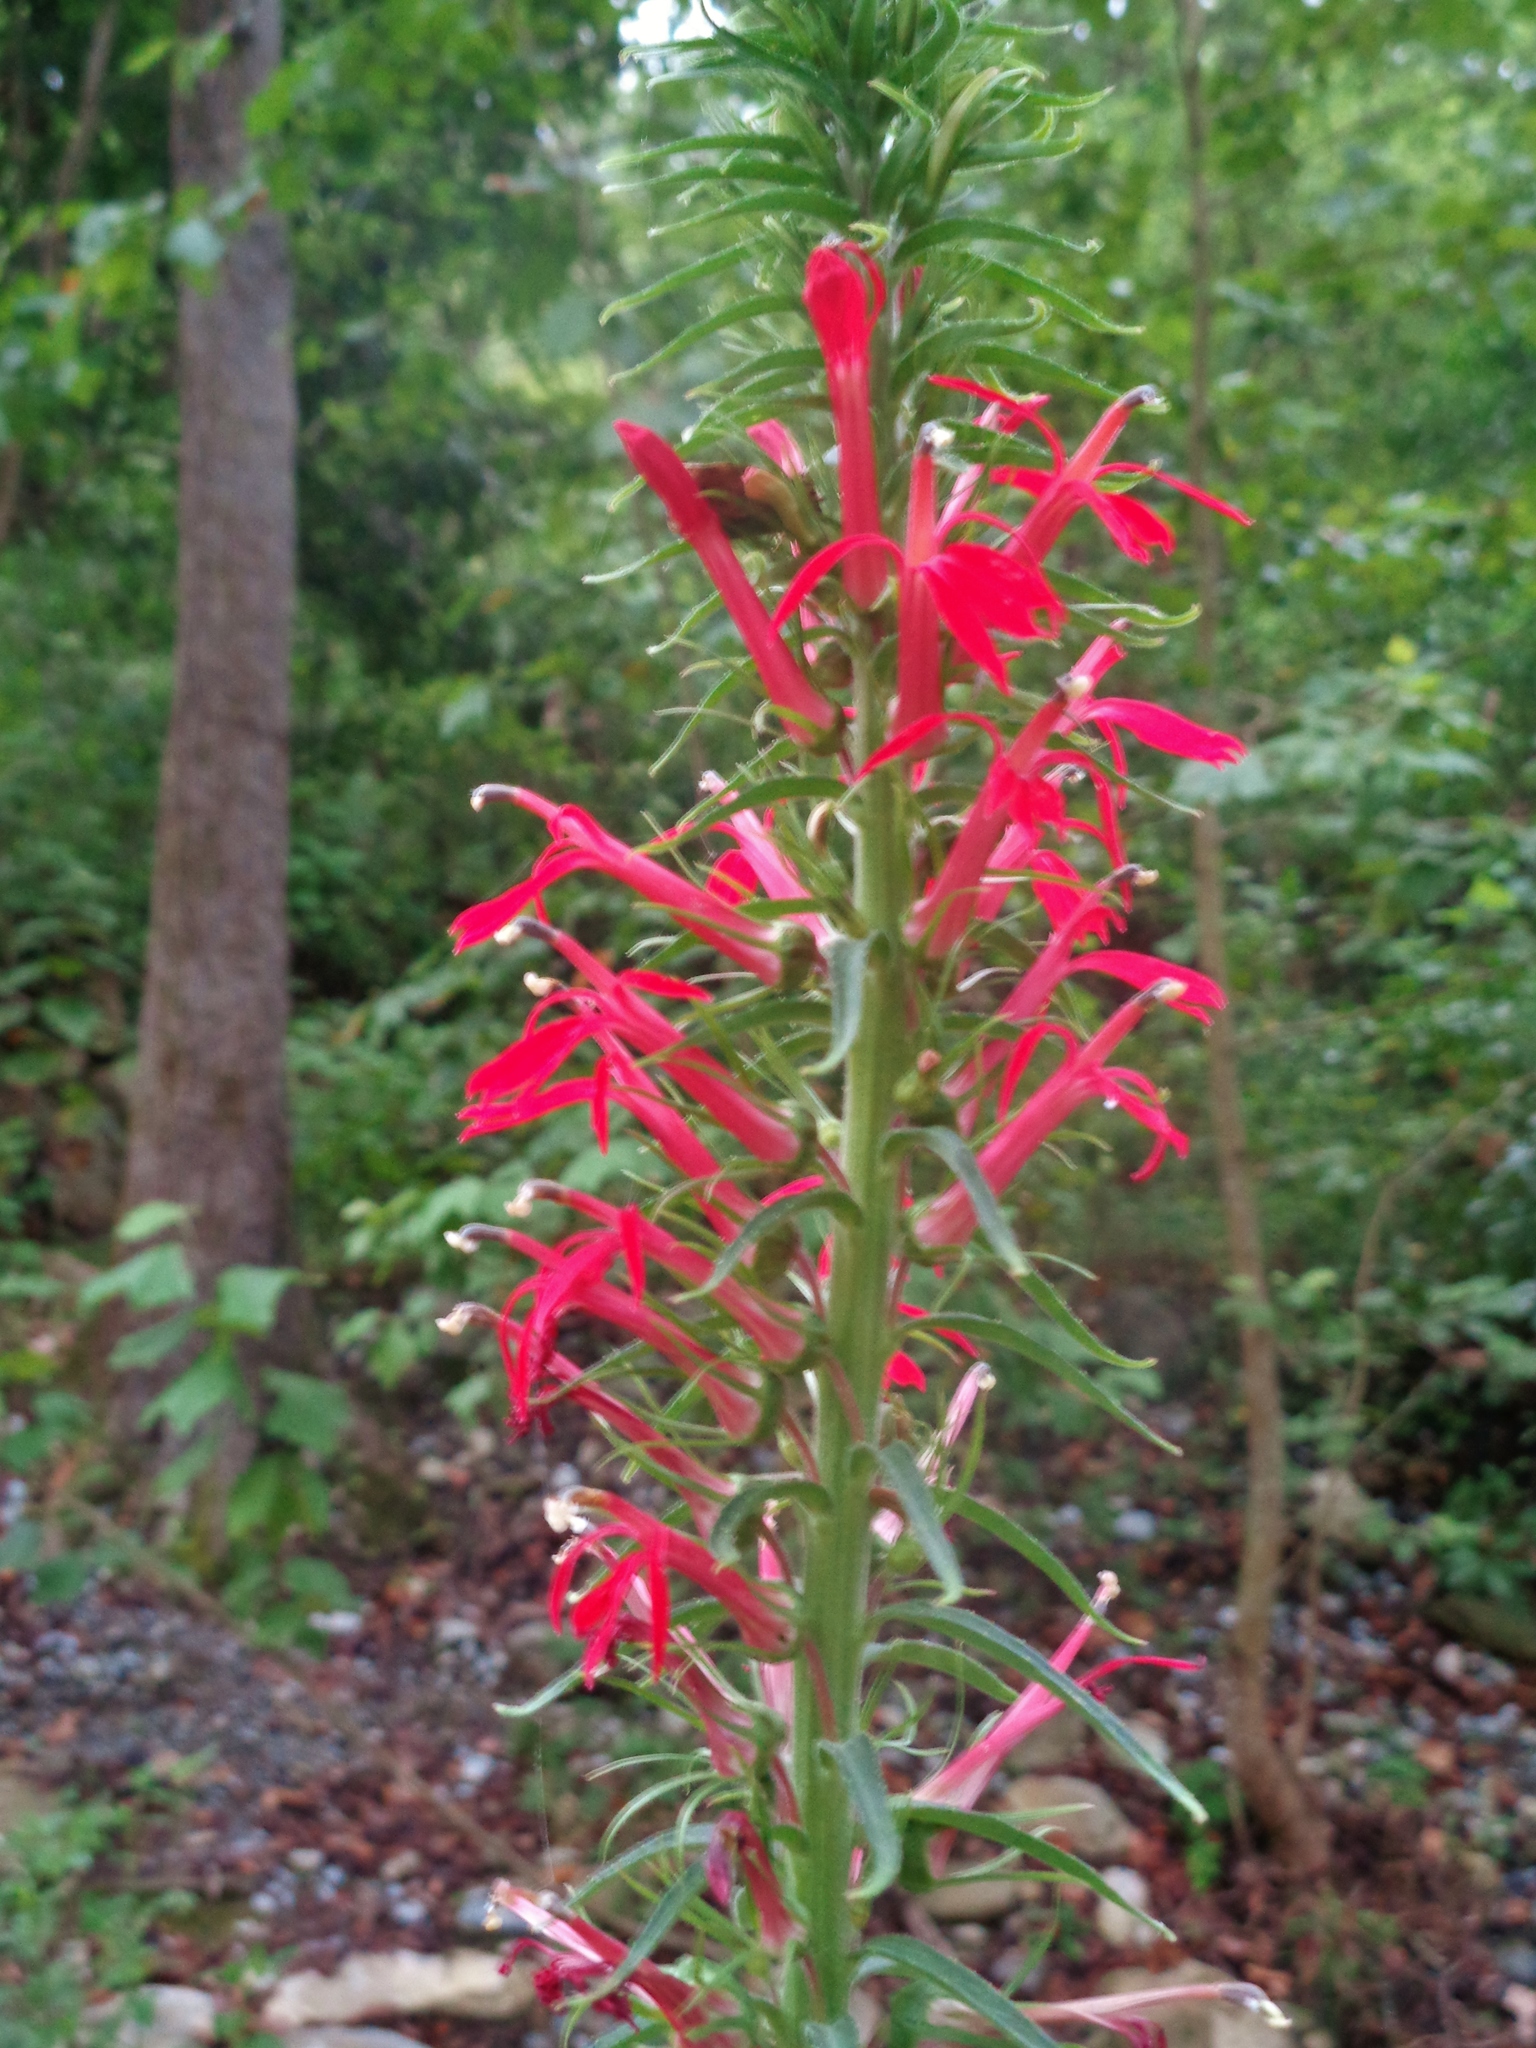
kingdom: Plantae
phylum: Tracheophyta
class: Magnoliopsida
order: Asterales
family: Campanulaceae
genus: Lobelia
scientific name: Lobelia cardinalis
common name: Cardinal flower
